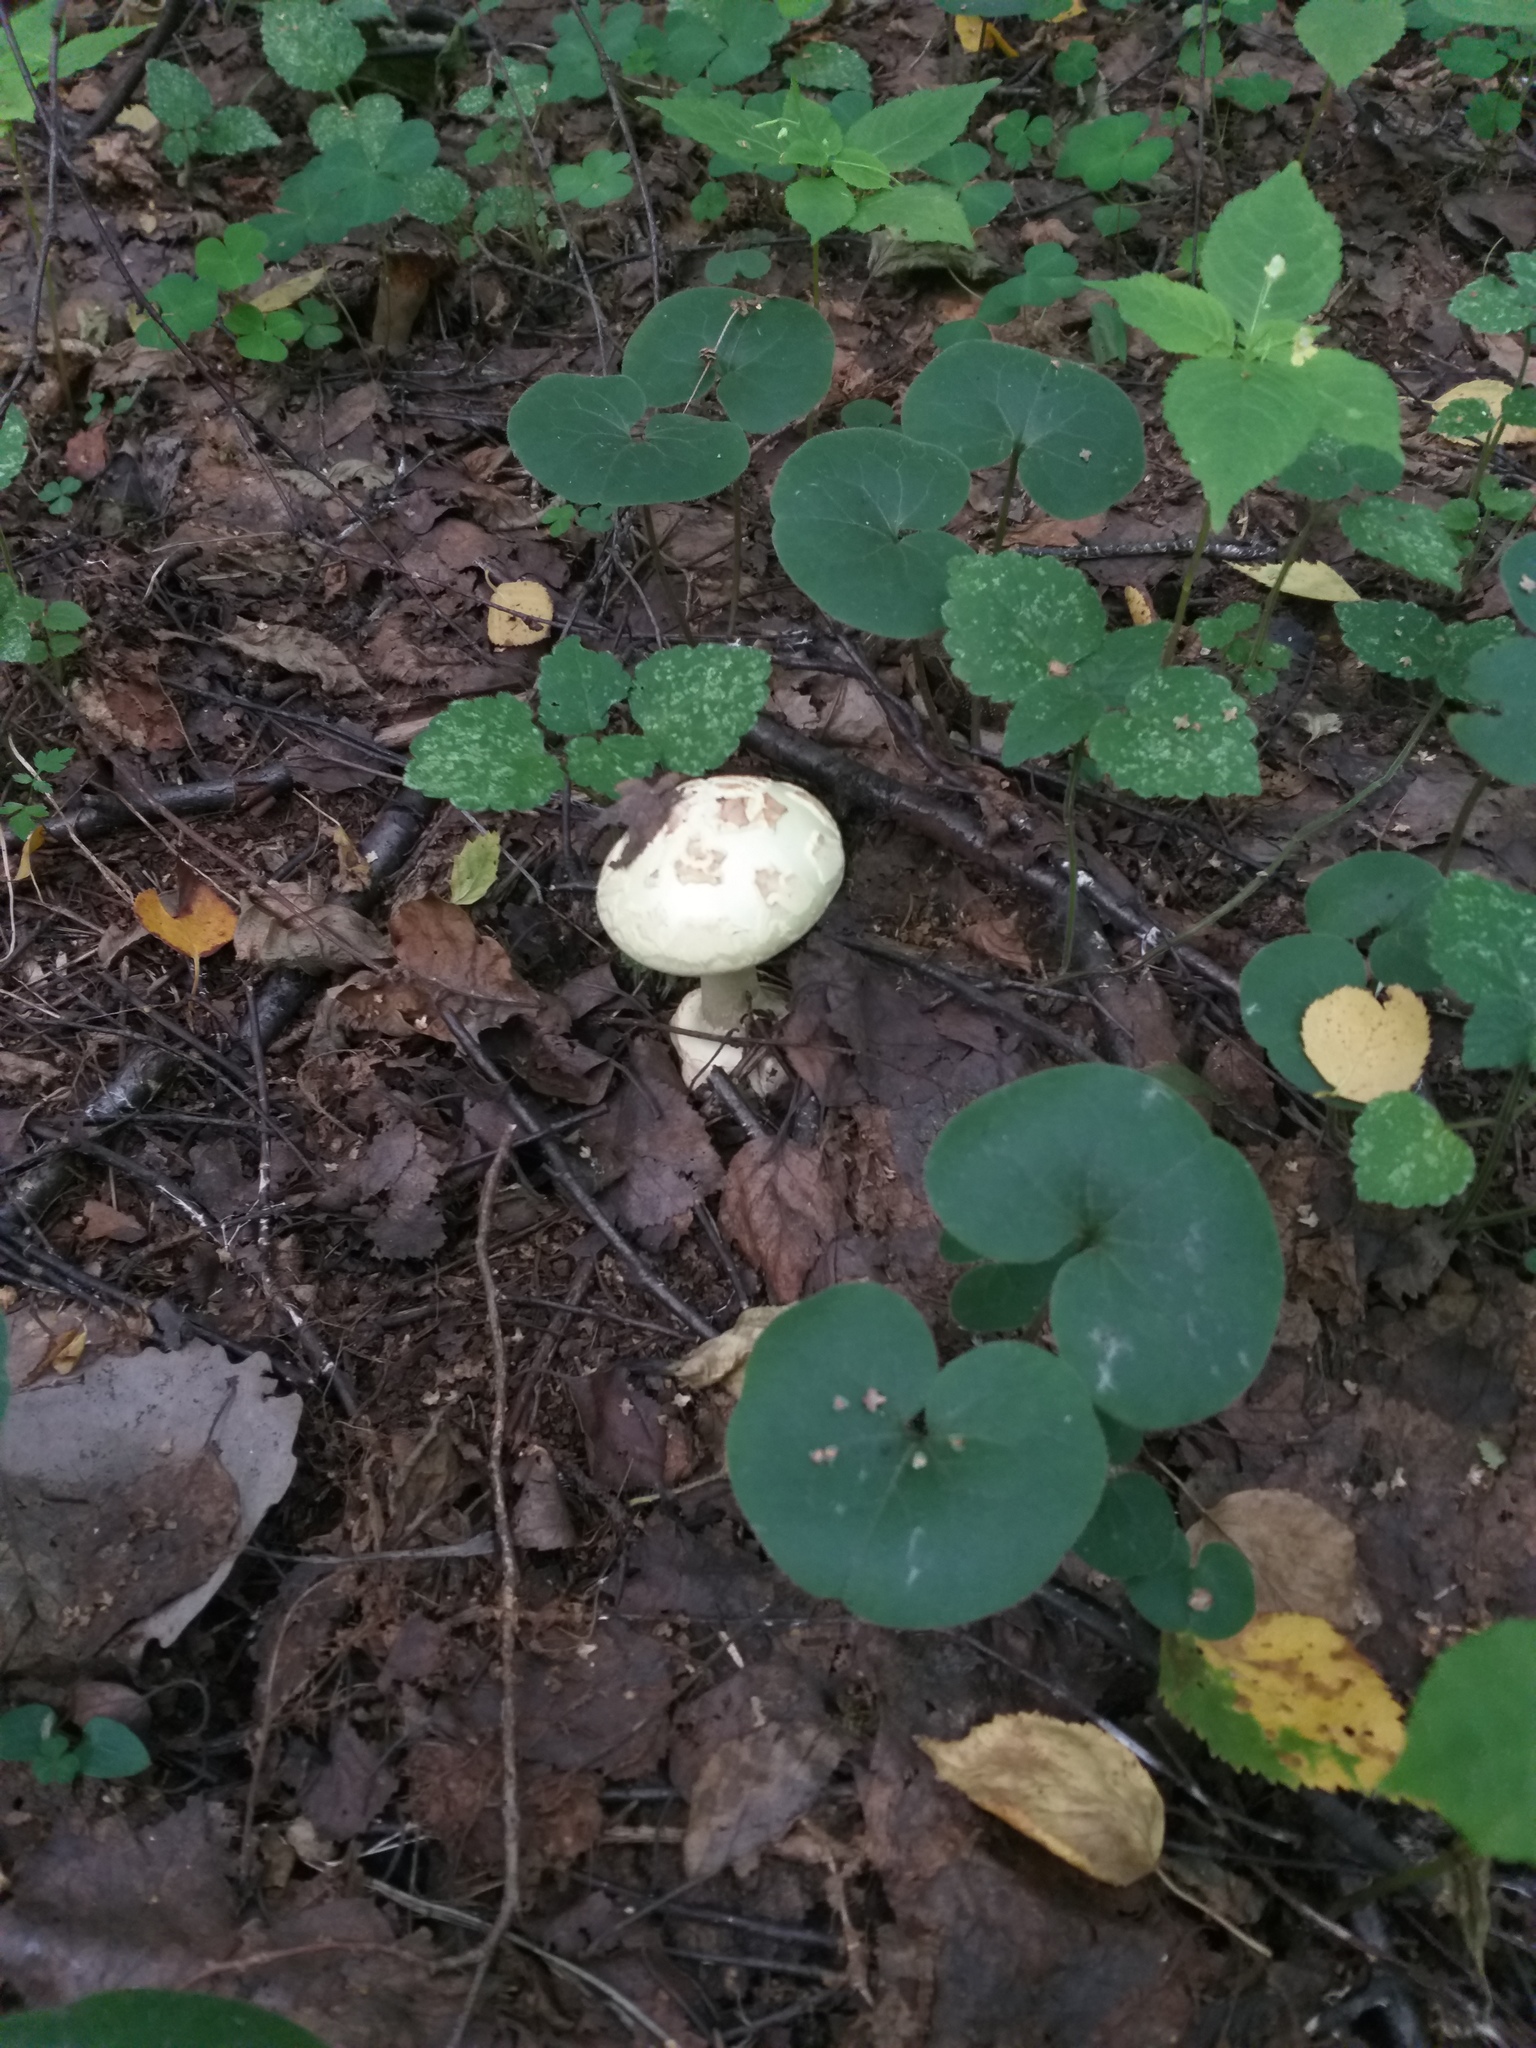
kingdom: Fungi
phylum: Basidiomycota
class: Agaricomycetes
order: Agaricales
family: Amanitaceae
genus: Amanita
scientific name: Amanita citrina
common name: False death-cap
